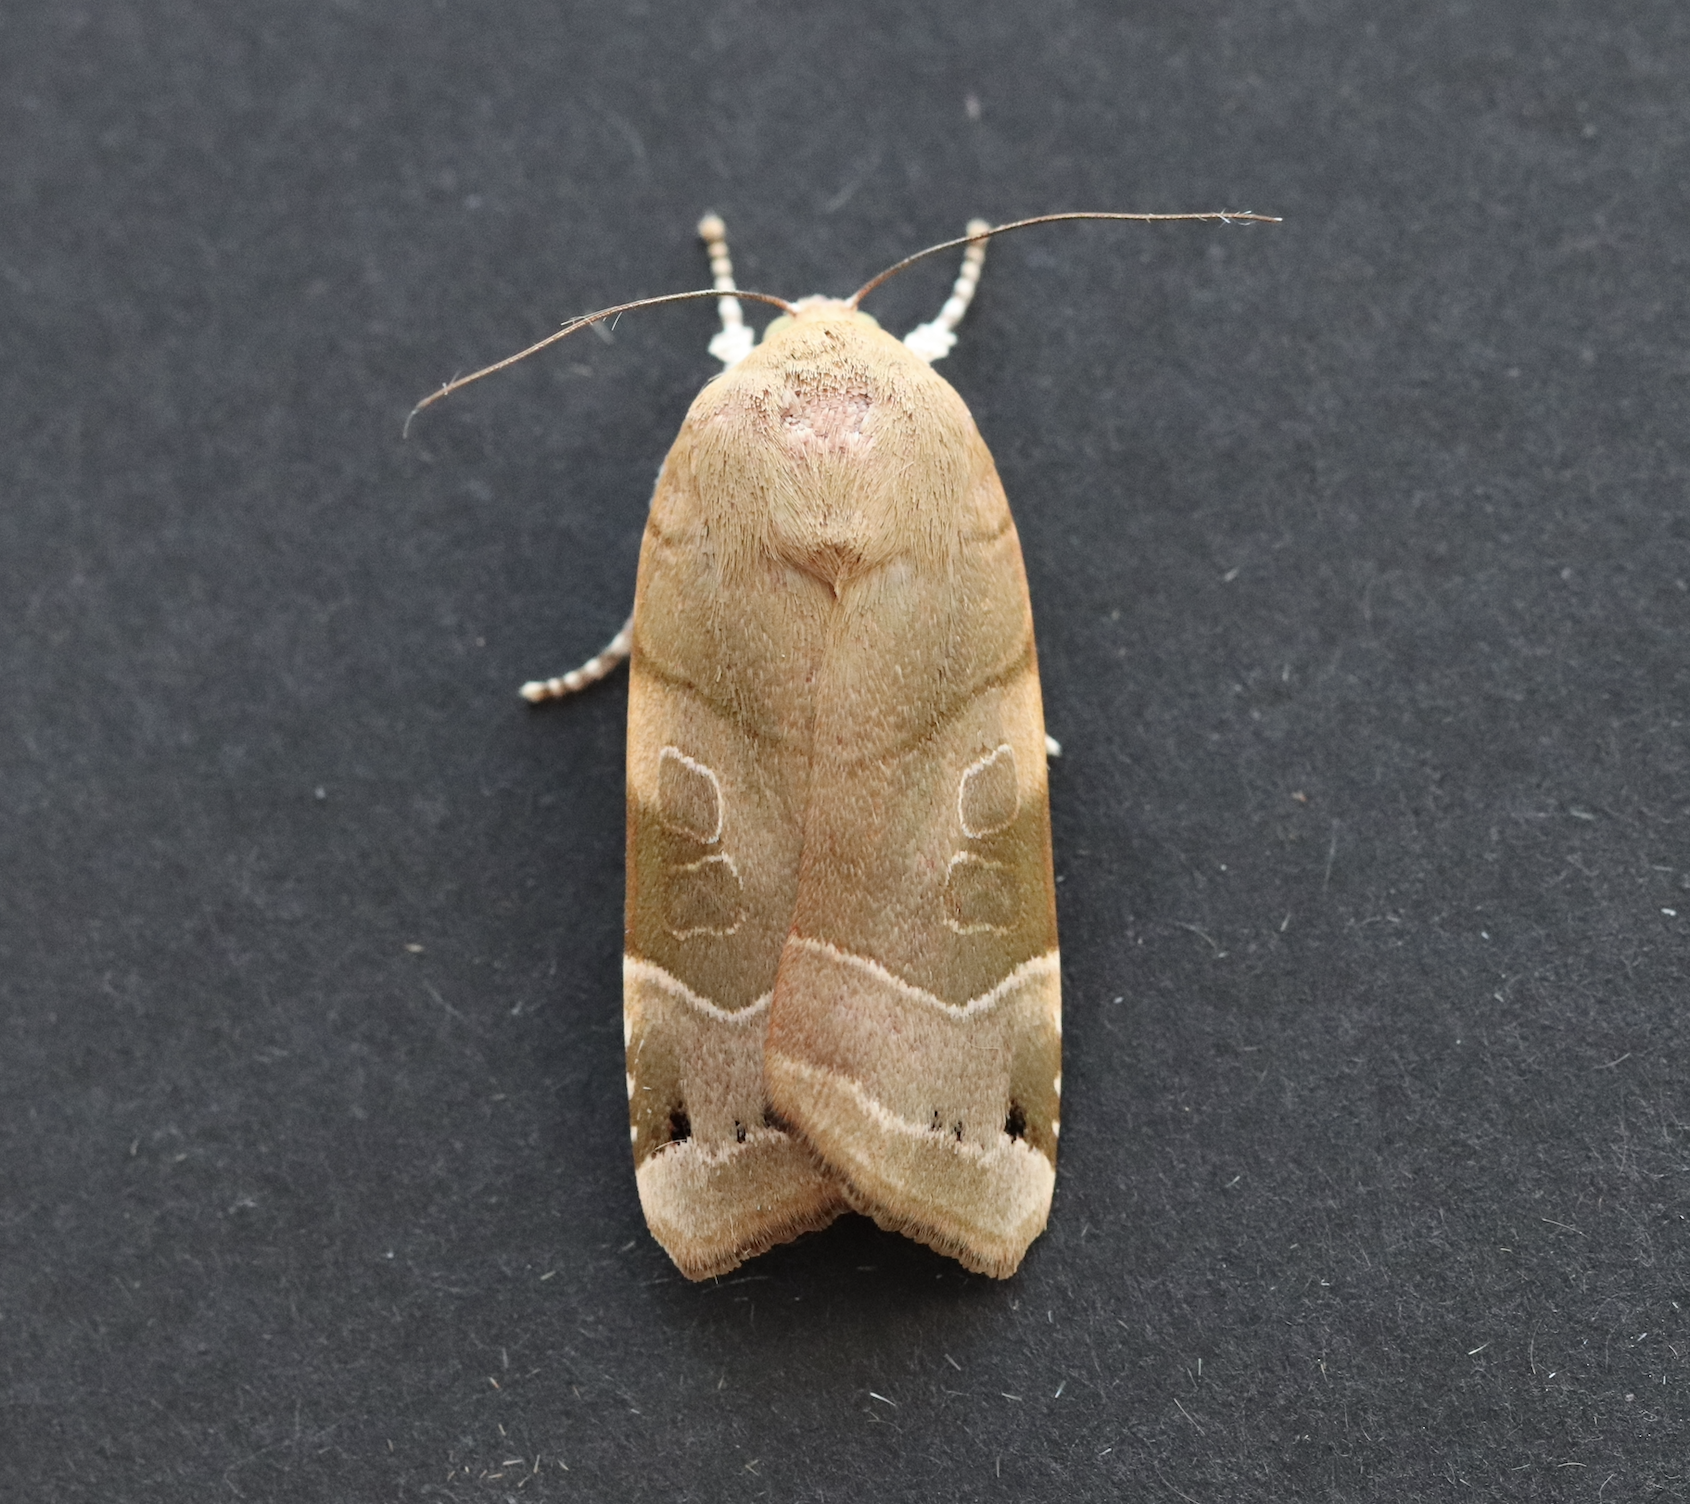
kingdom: Animalia
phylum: Arthropoda
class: Insecta
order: Lepidoptera
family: Noctuidae
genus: Noctua
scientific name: Noctua fimbriata
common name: Broad-bordered yellow underwing
